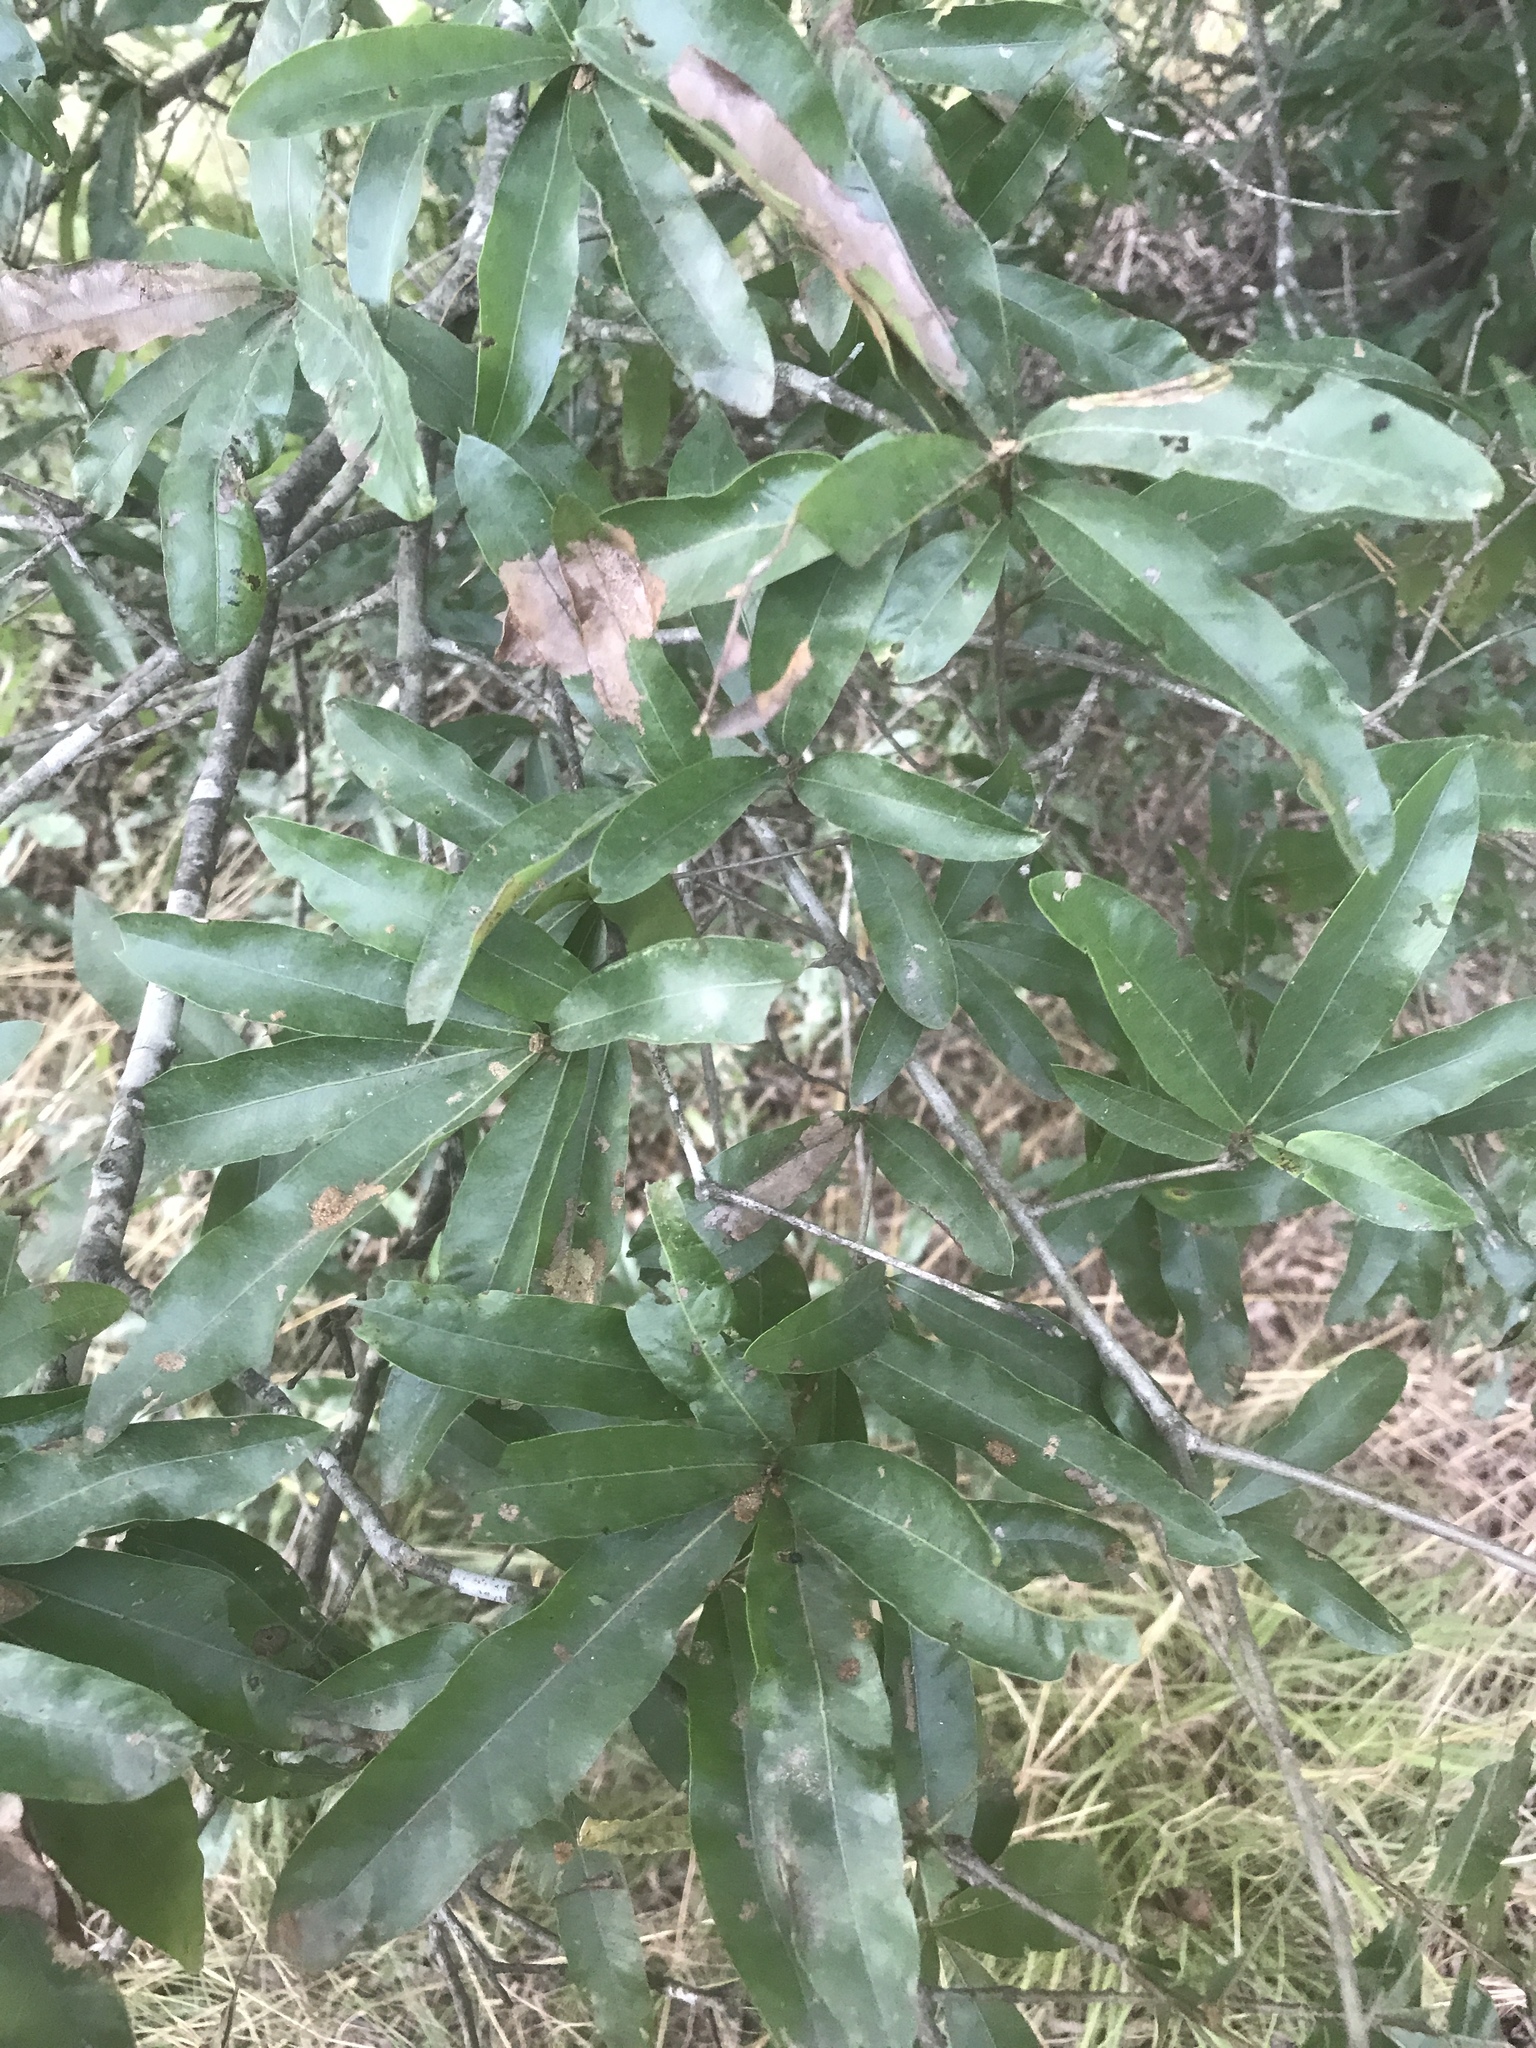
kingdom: Plantae
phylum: Tracheophyta
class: Magnoliopsida
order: Fagales
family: Fagaceae
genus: Quercus
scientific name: Quercus phellos
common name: Willow oak
